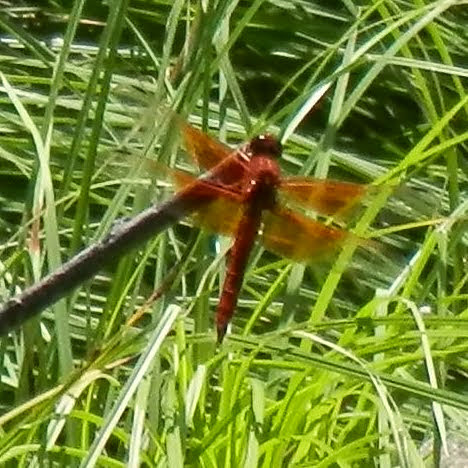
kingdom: Animalia
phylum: Arthropoda
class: Insecta
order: Odonata
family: Libellulidae
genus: Libellula
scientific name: Libellula saturata
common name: Flame skimmer
